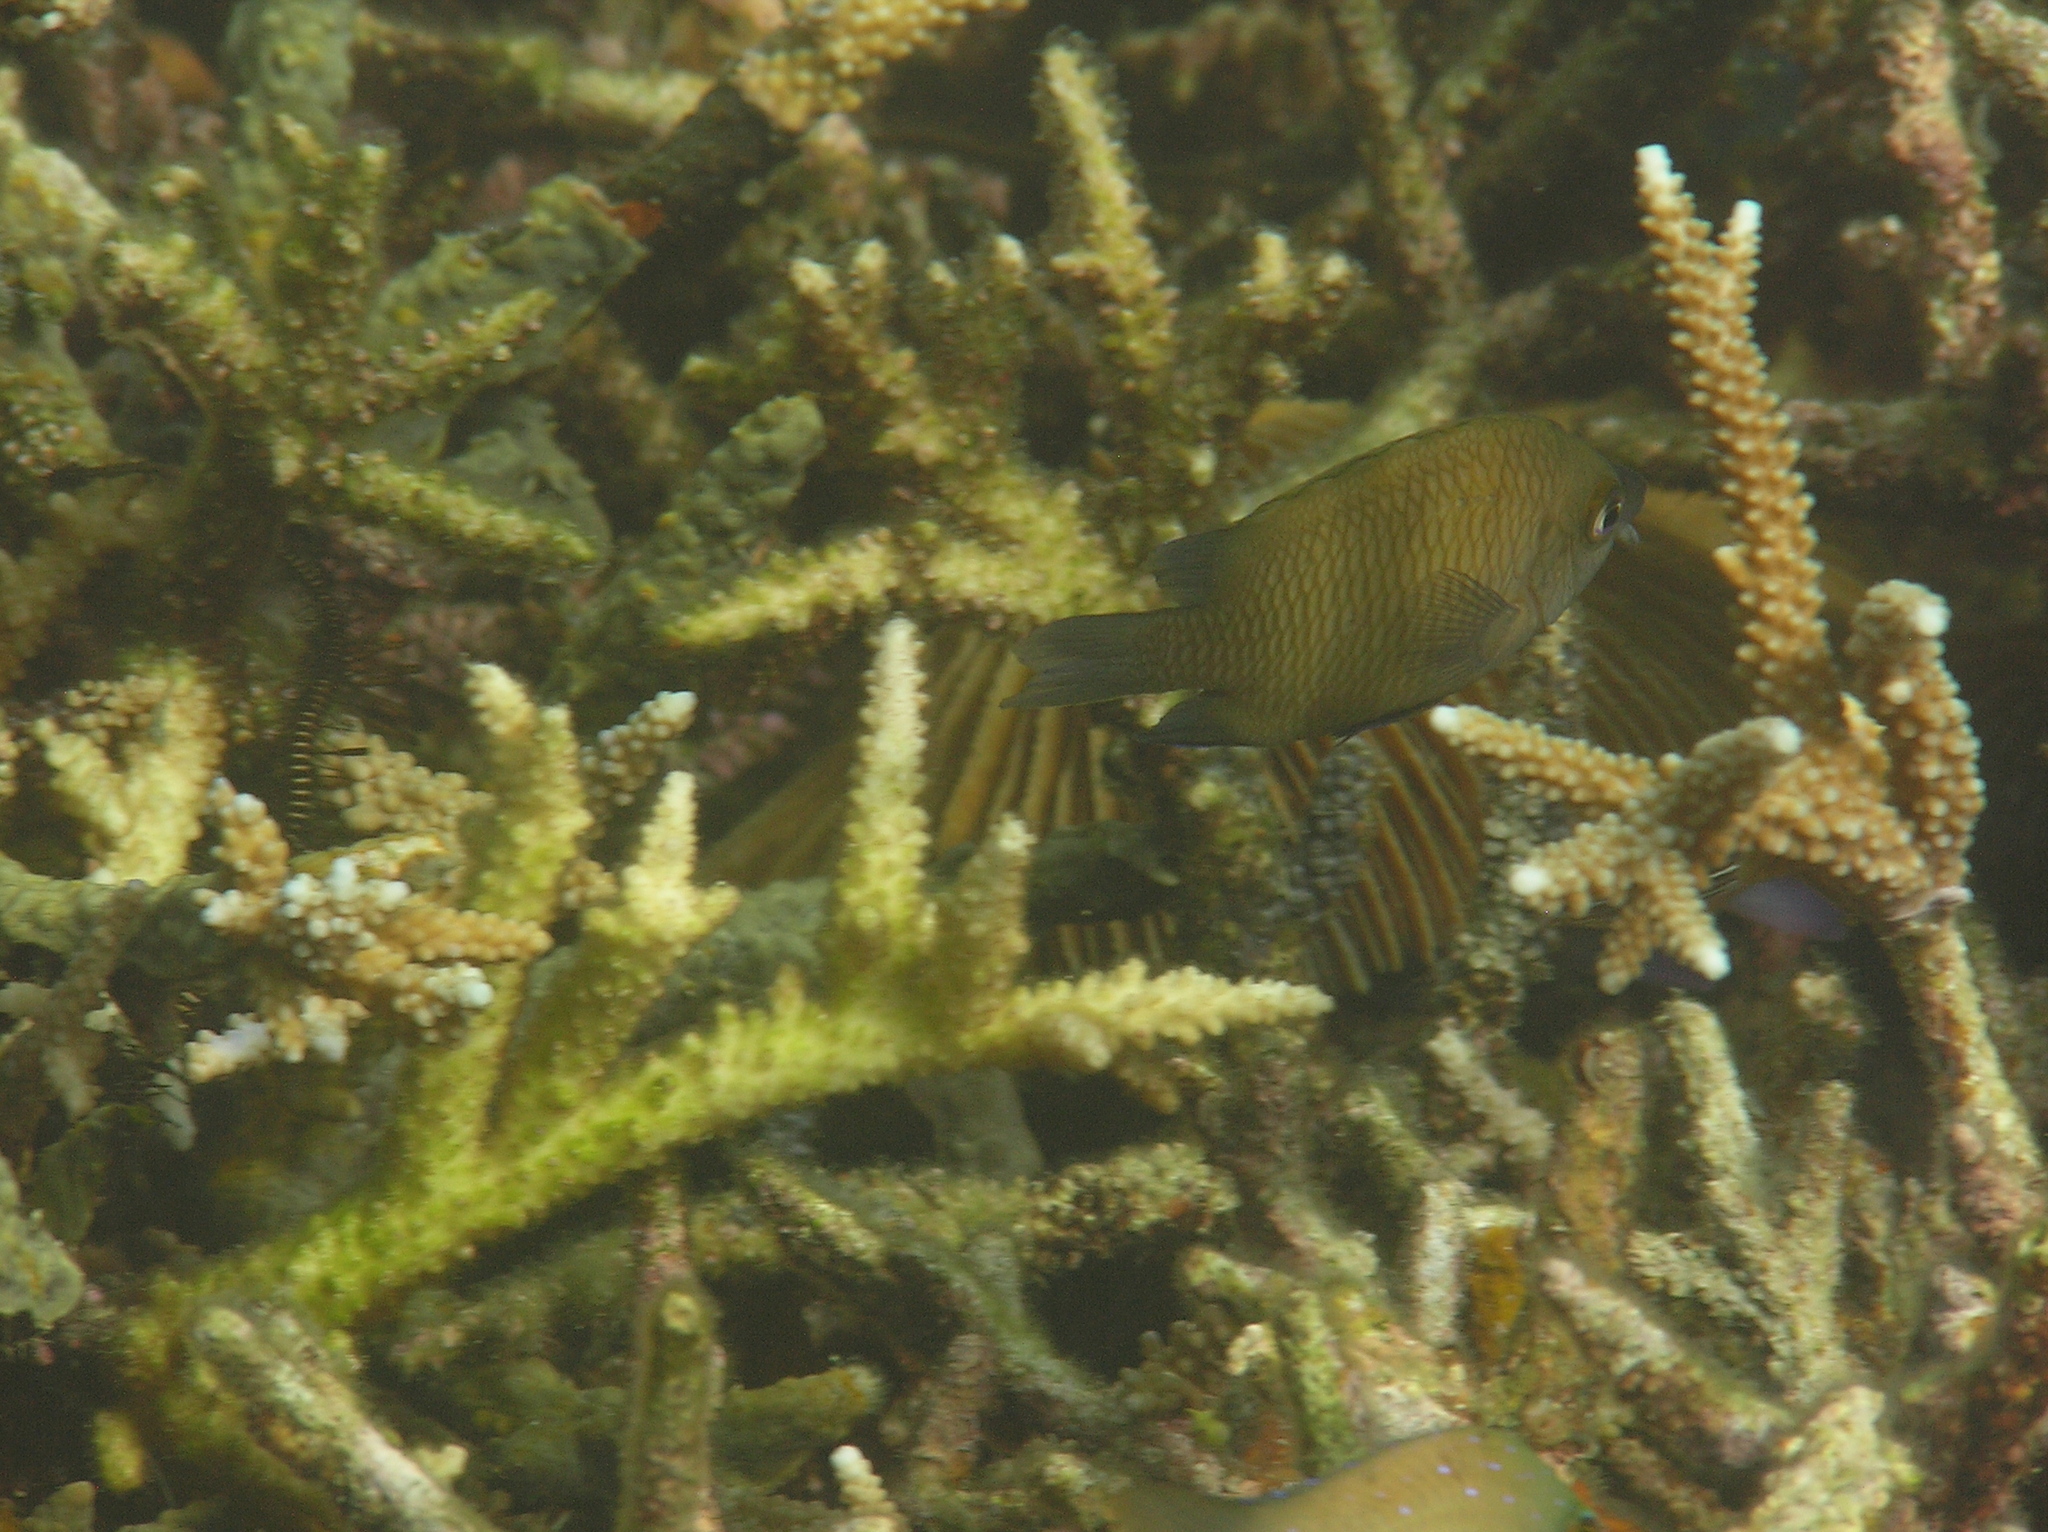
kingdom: Animalia
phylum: Chordata
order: Perciformes
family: Pomacentridae
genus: Cheiloprion
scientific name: Cheiloprion labiatus
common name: Big-lip damsel
